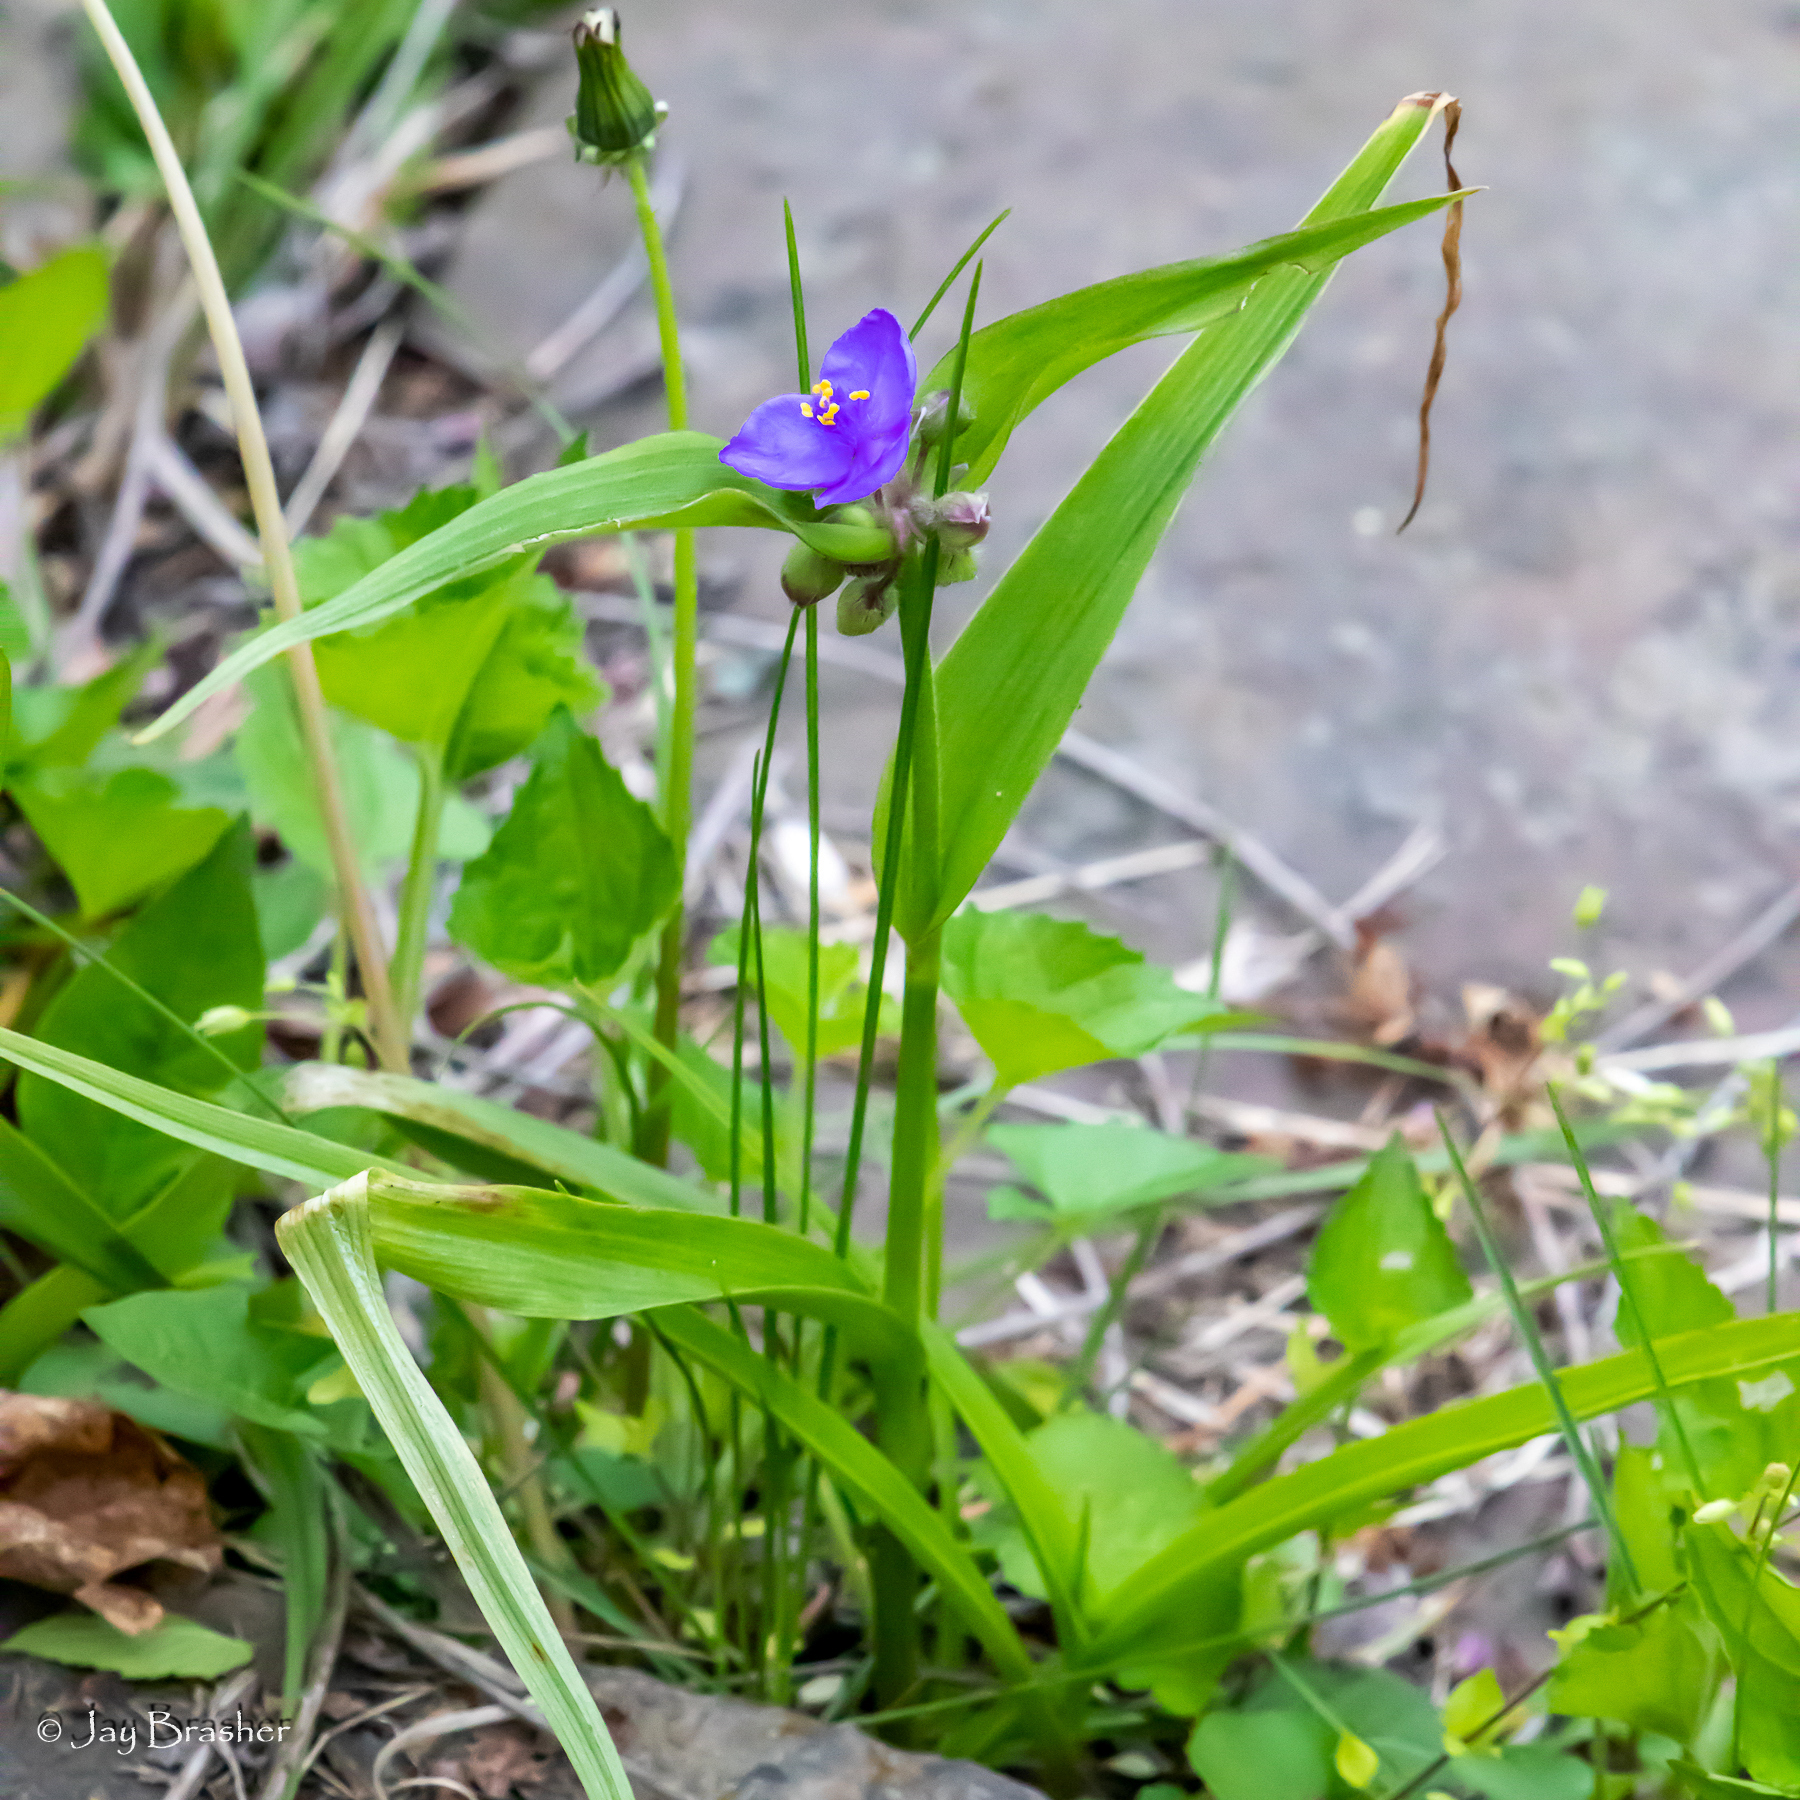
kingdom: Plantae
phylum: Tracheophyta
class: Liliopsida
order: Commelinales
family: Commelinaceae
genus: Tradescantia
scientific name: Tradescantia ohiensis
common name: Ohio spiderwort
